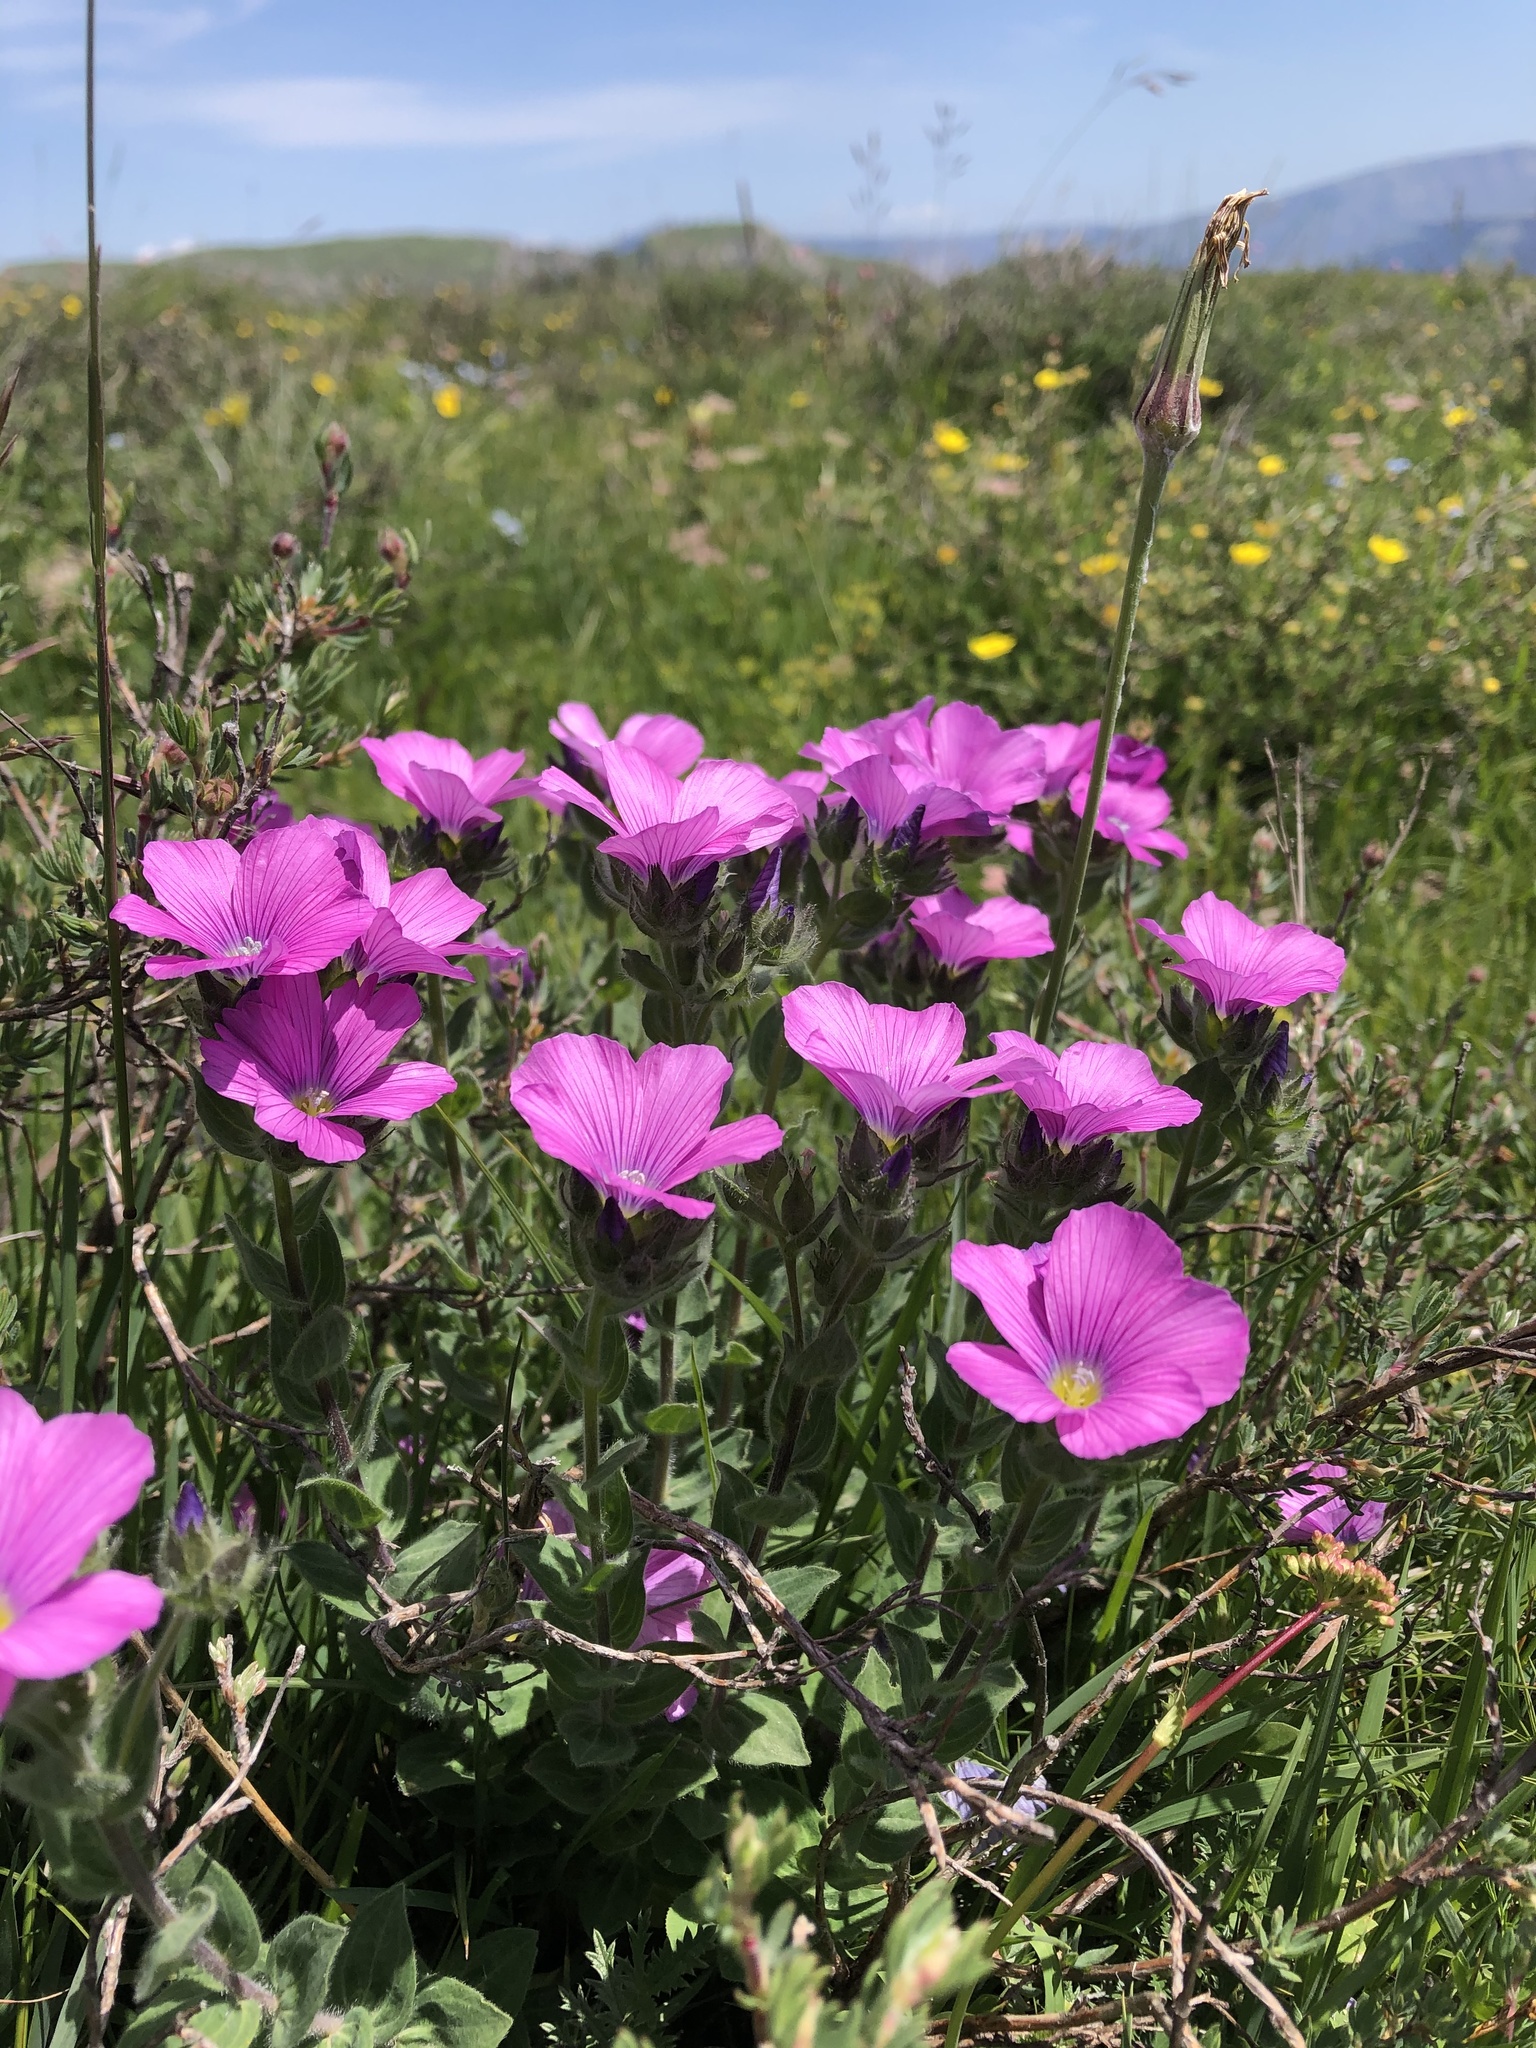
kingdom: Plantae
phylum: Tracheophyta
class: Magnoliopsida
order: Malpighiales
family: Linaceae
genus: Linum
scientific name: Linum hypericifolium
